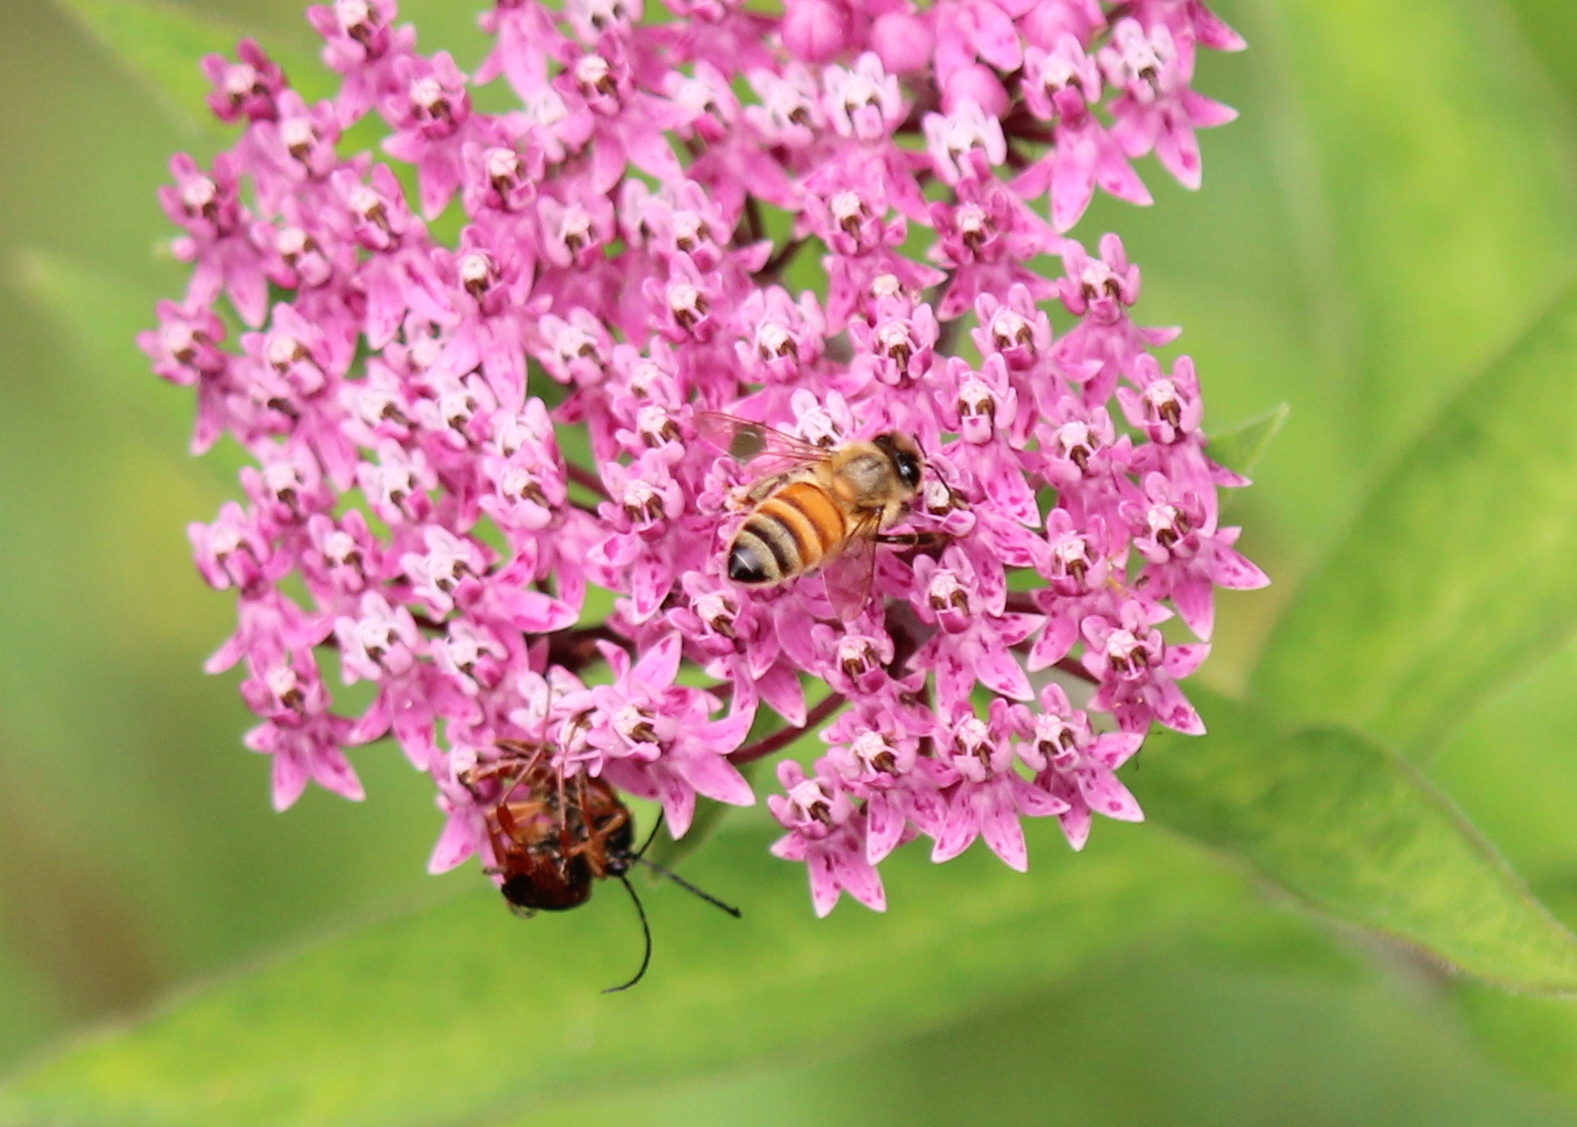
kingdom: Animalia
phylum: Arthropoda
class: Insecta
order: Hymenoptera
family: Apidae
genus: Apis
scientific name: Apis mellifera
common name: Honey bee
